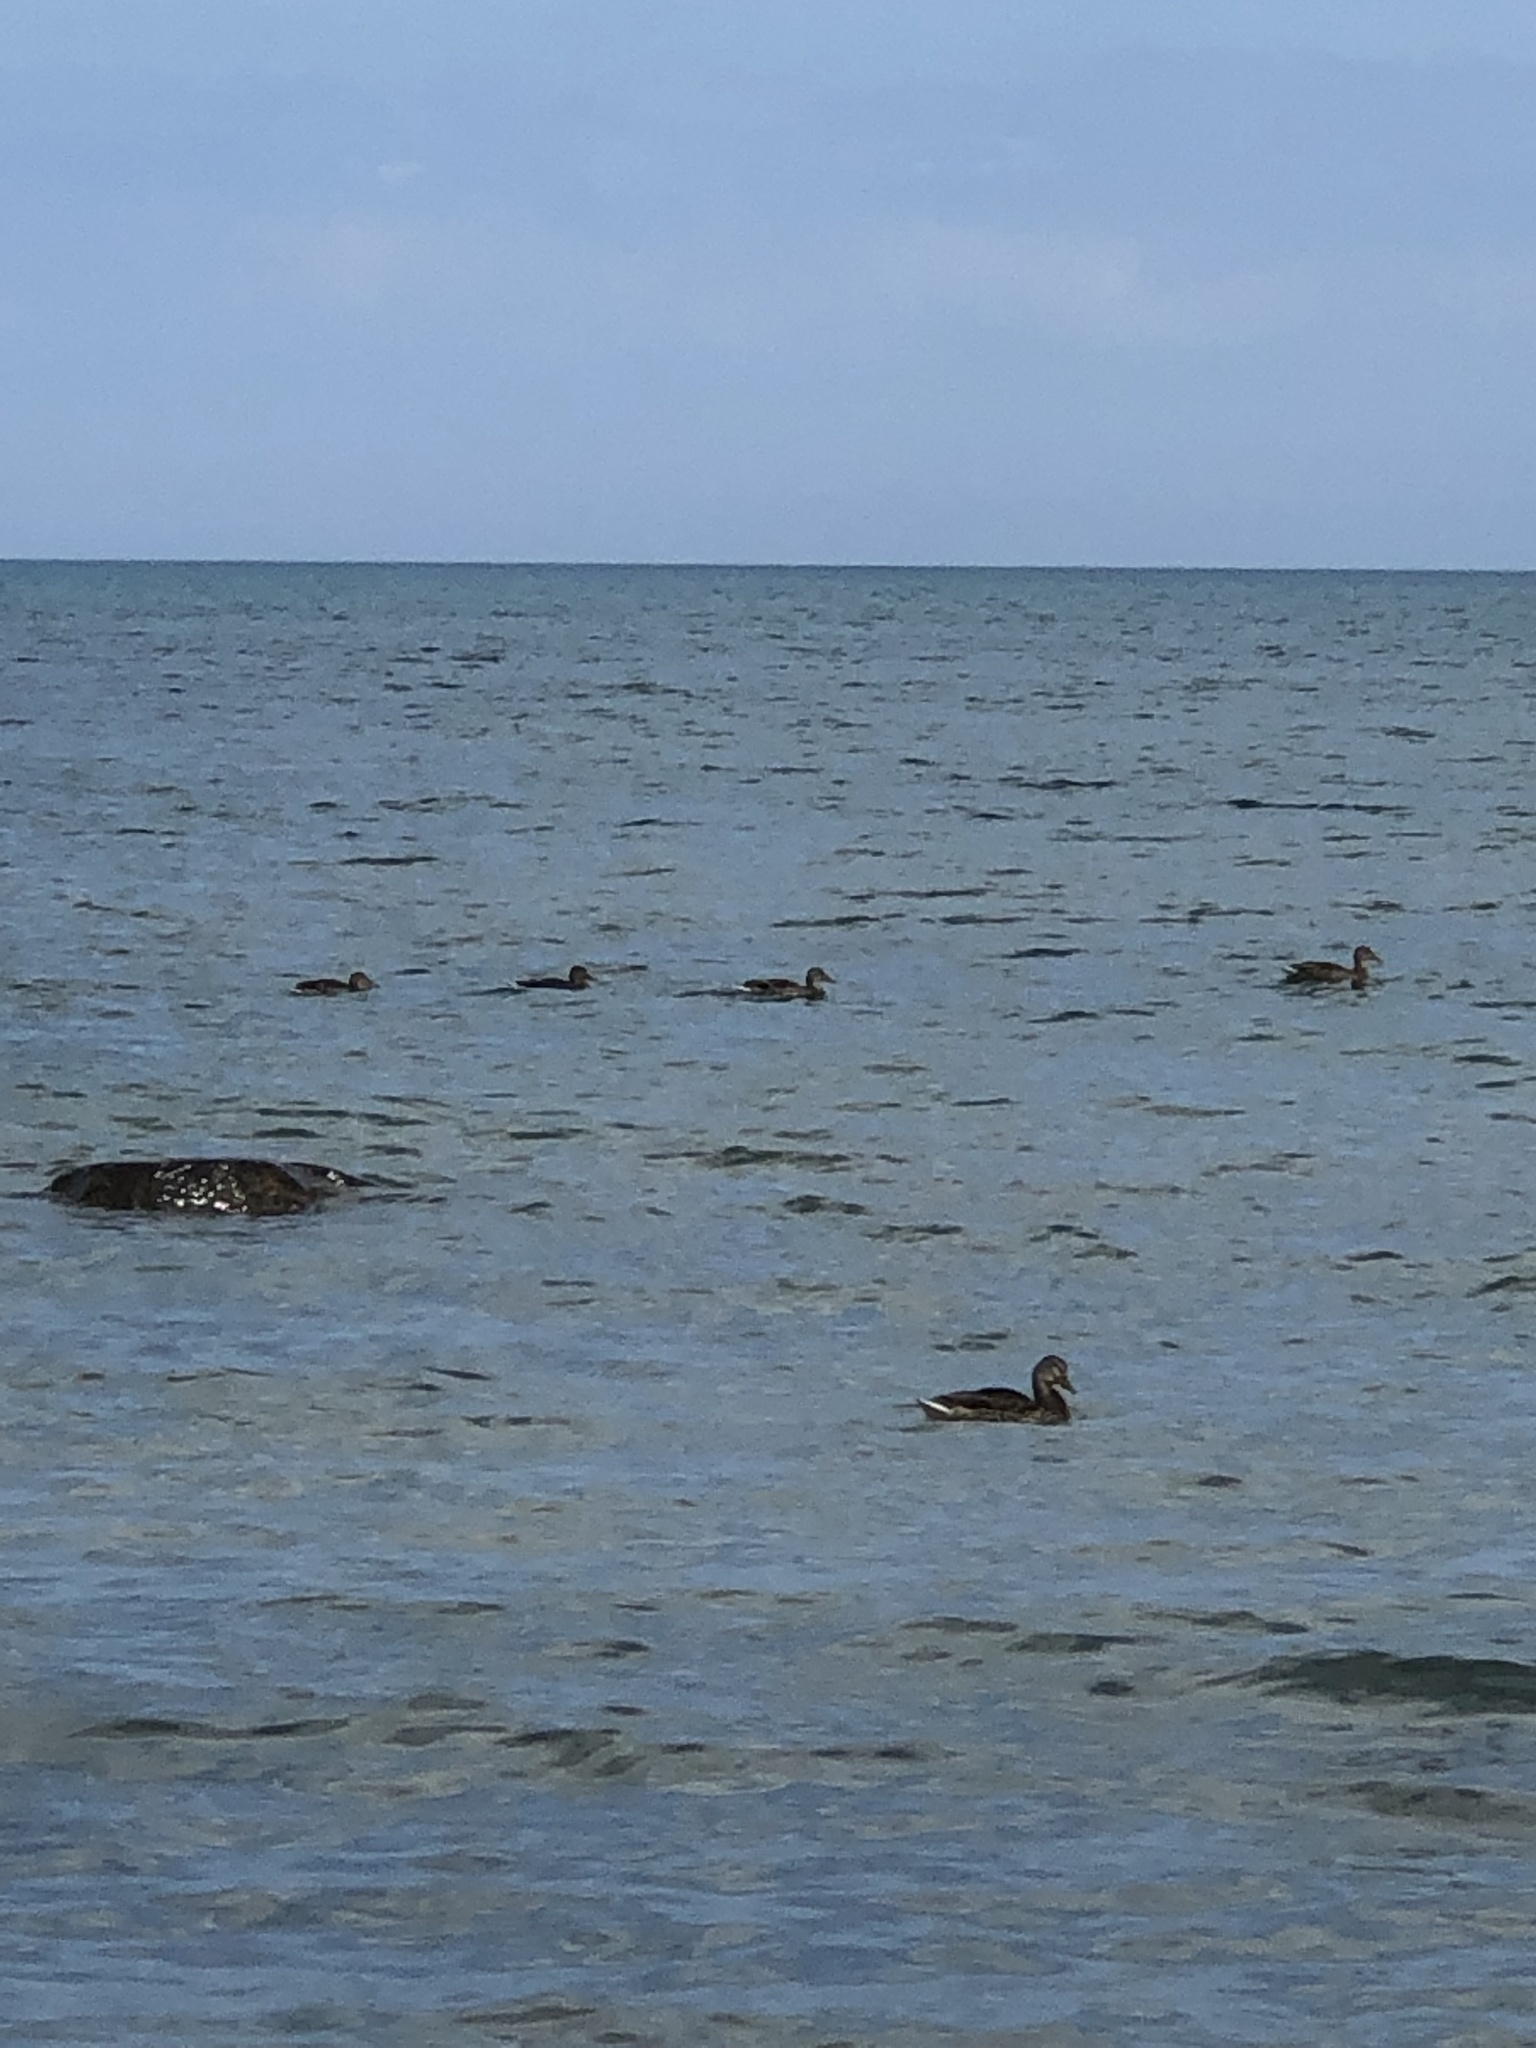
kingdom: Animalia
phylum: Chordata
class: Aves
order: Anseriformes
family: Anatidae
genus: Anas
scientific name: Anas platyrhynchos
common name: Mallard
